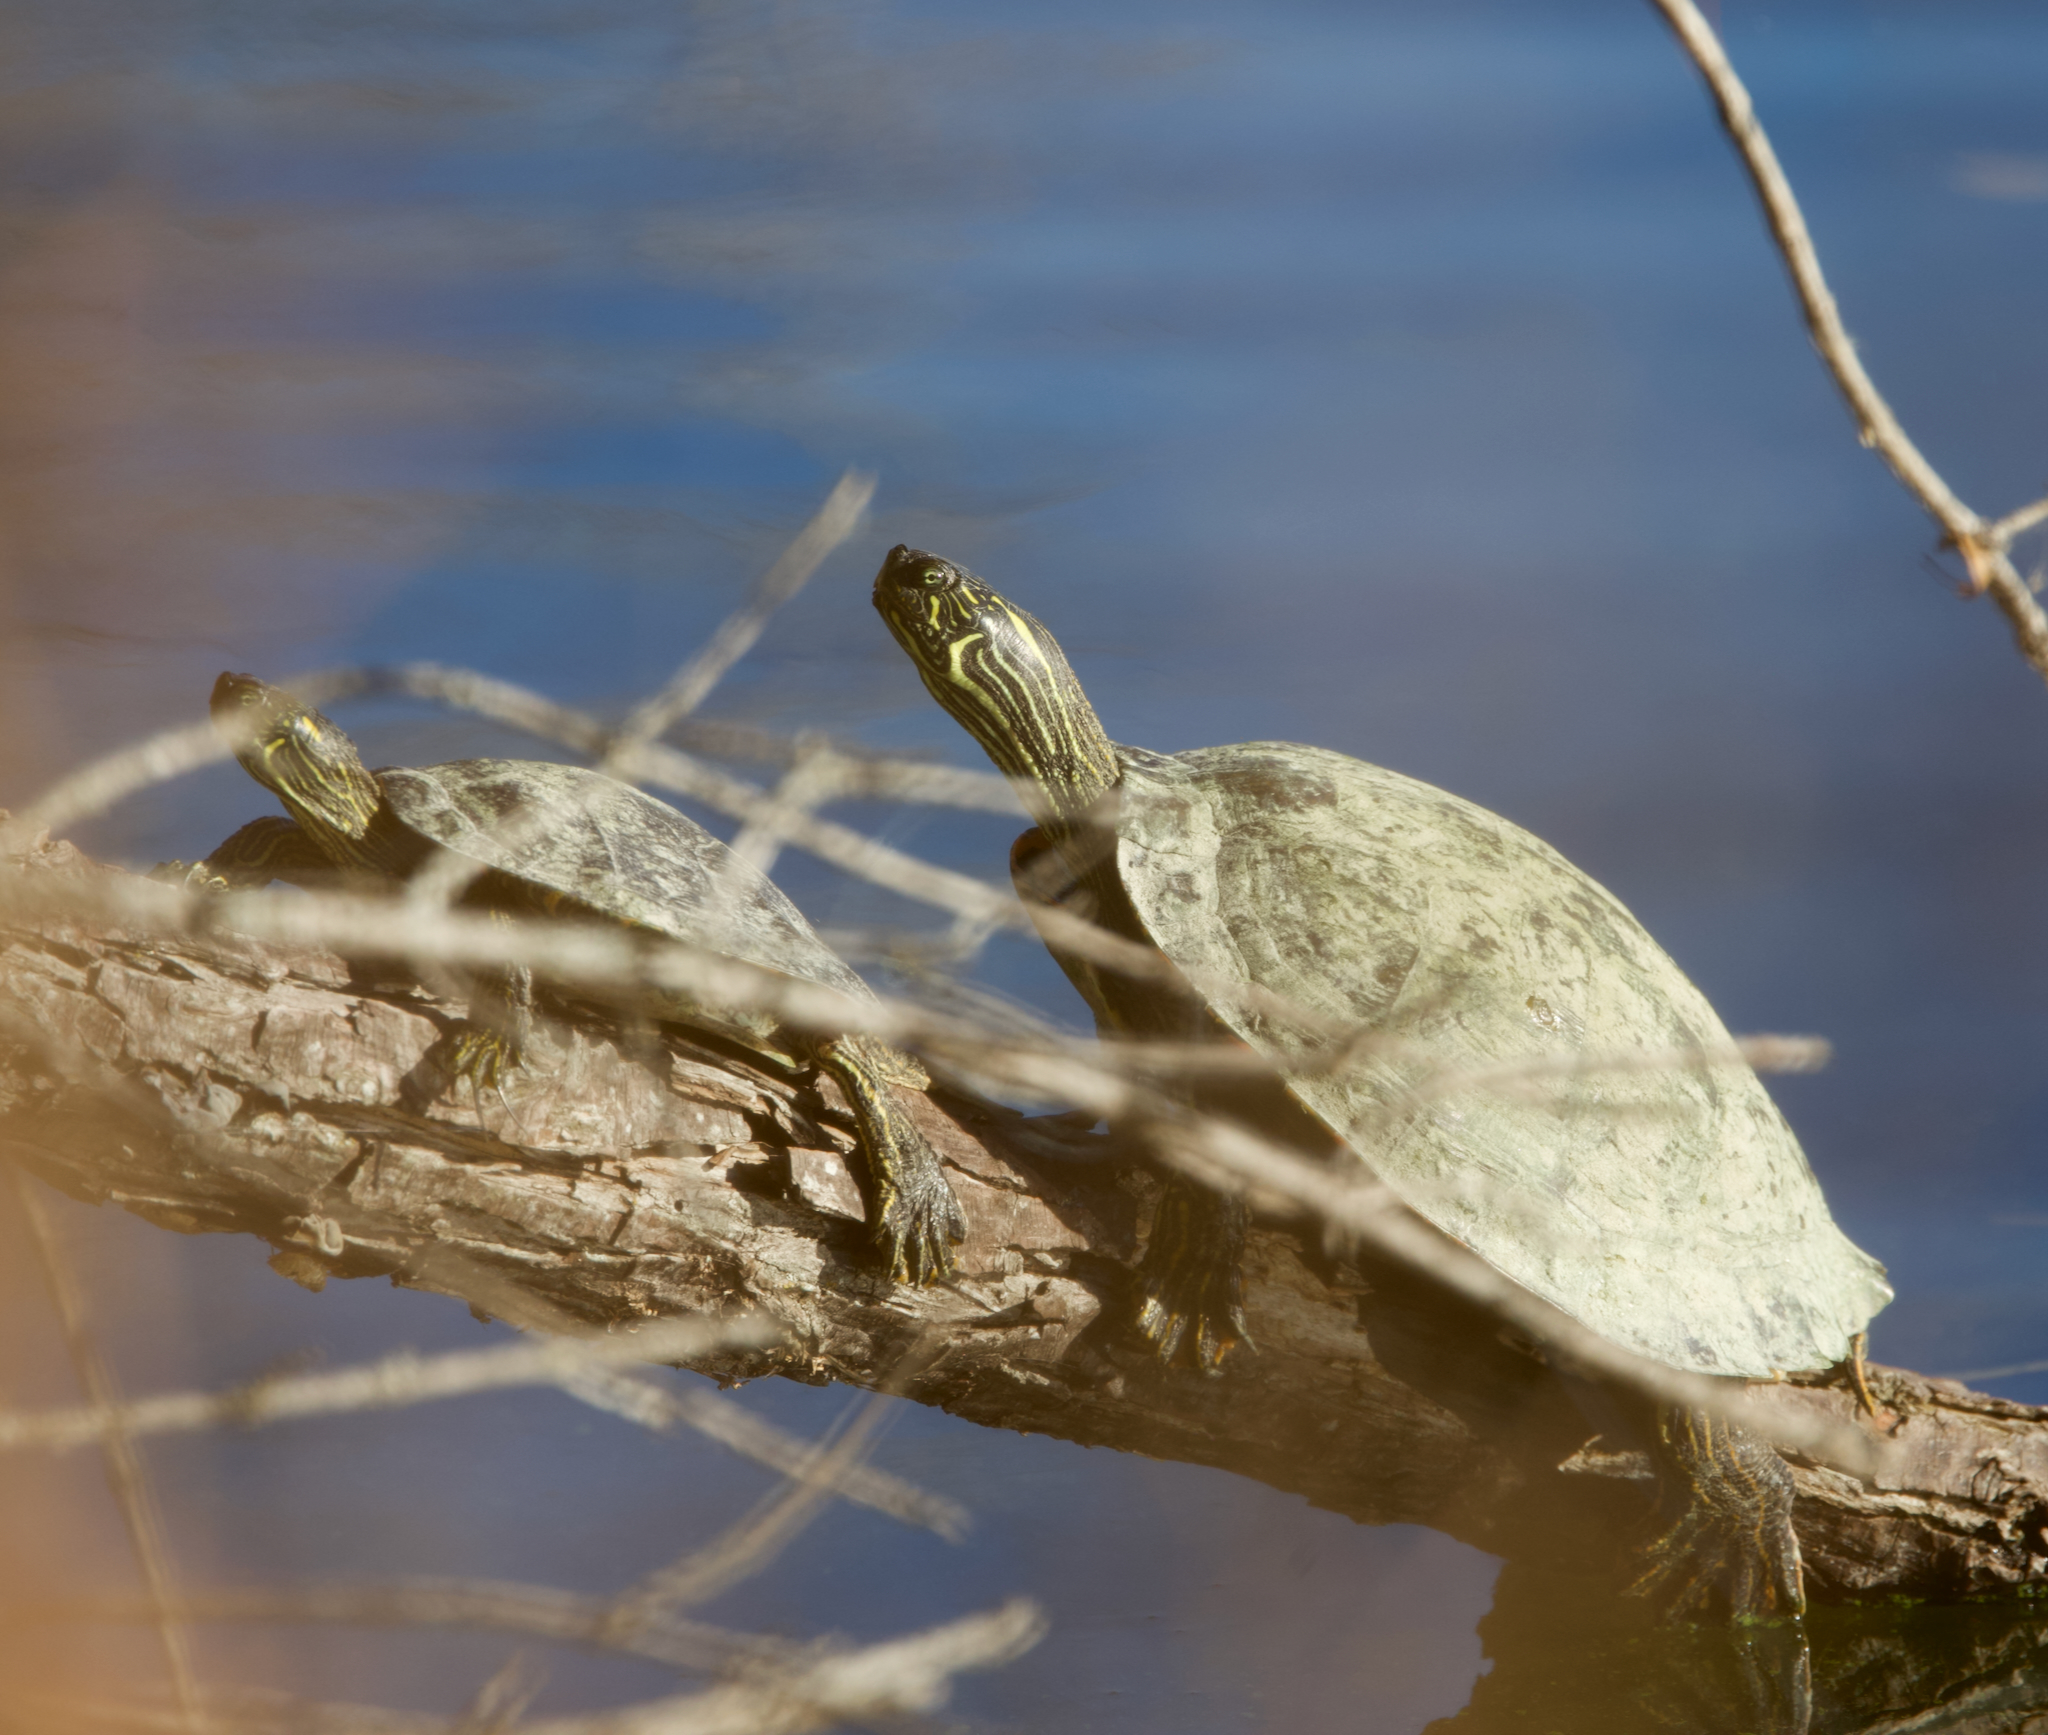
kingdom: Animalia
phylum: Chordata
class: Testudines
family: Emydidae
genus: Pseudemys
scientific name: Pseudemys texana
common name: Texas river cooter
